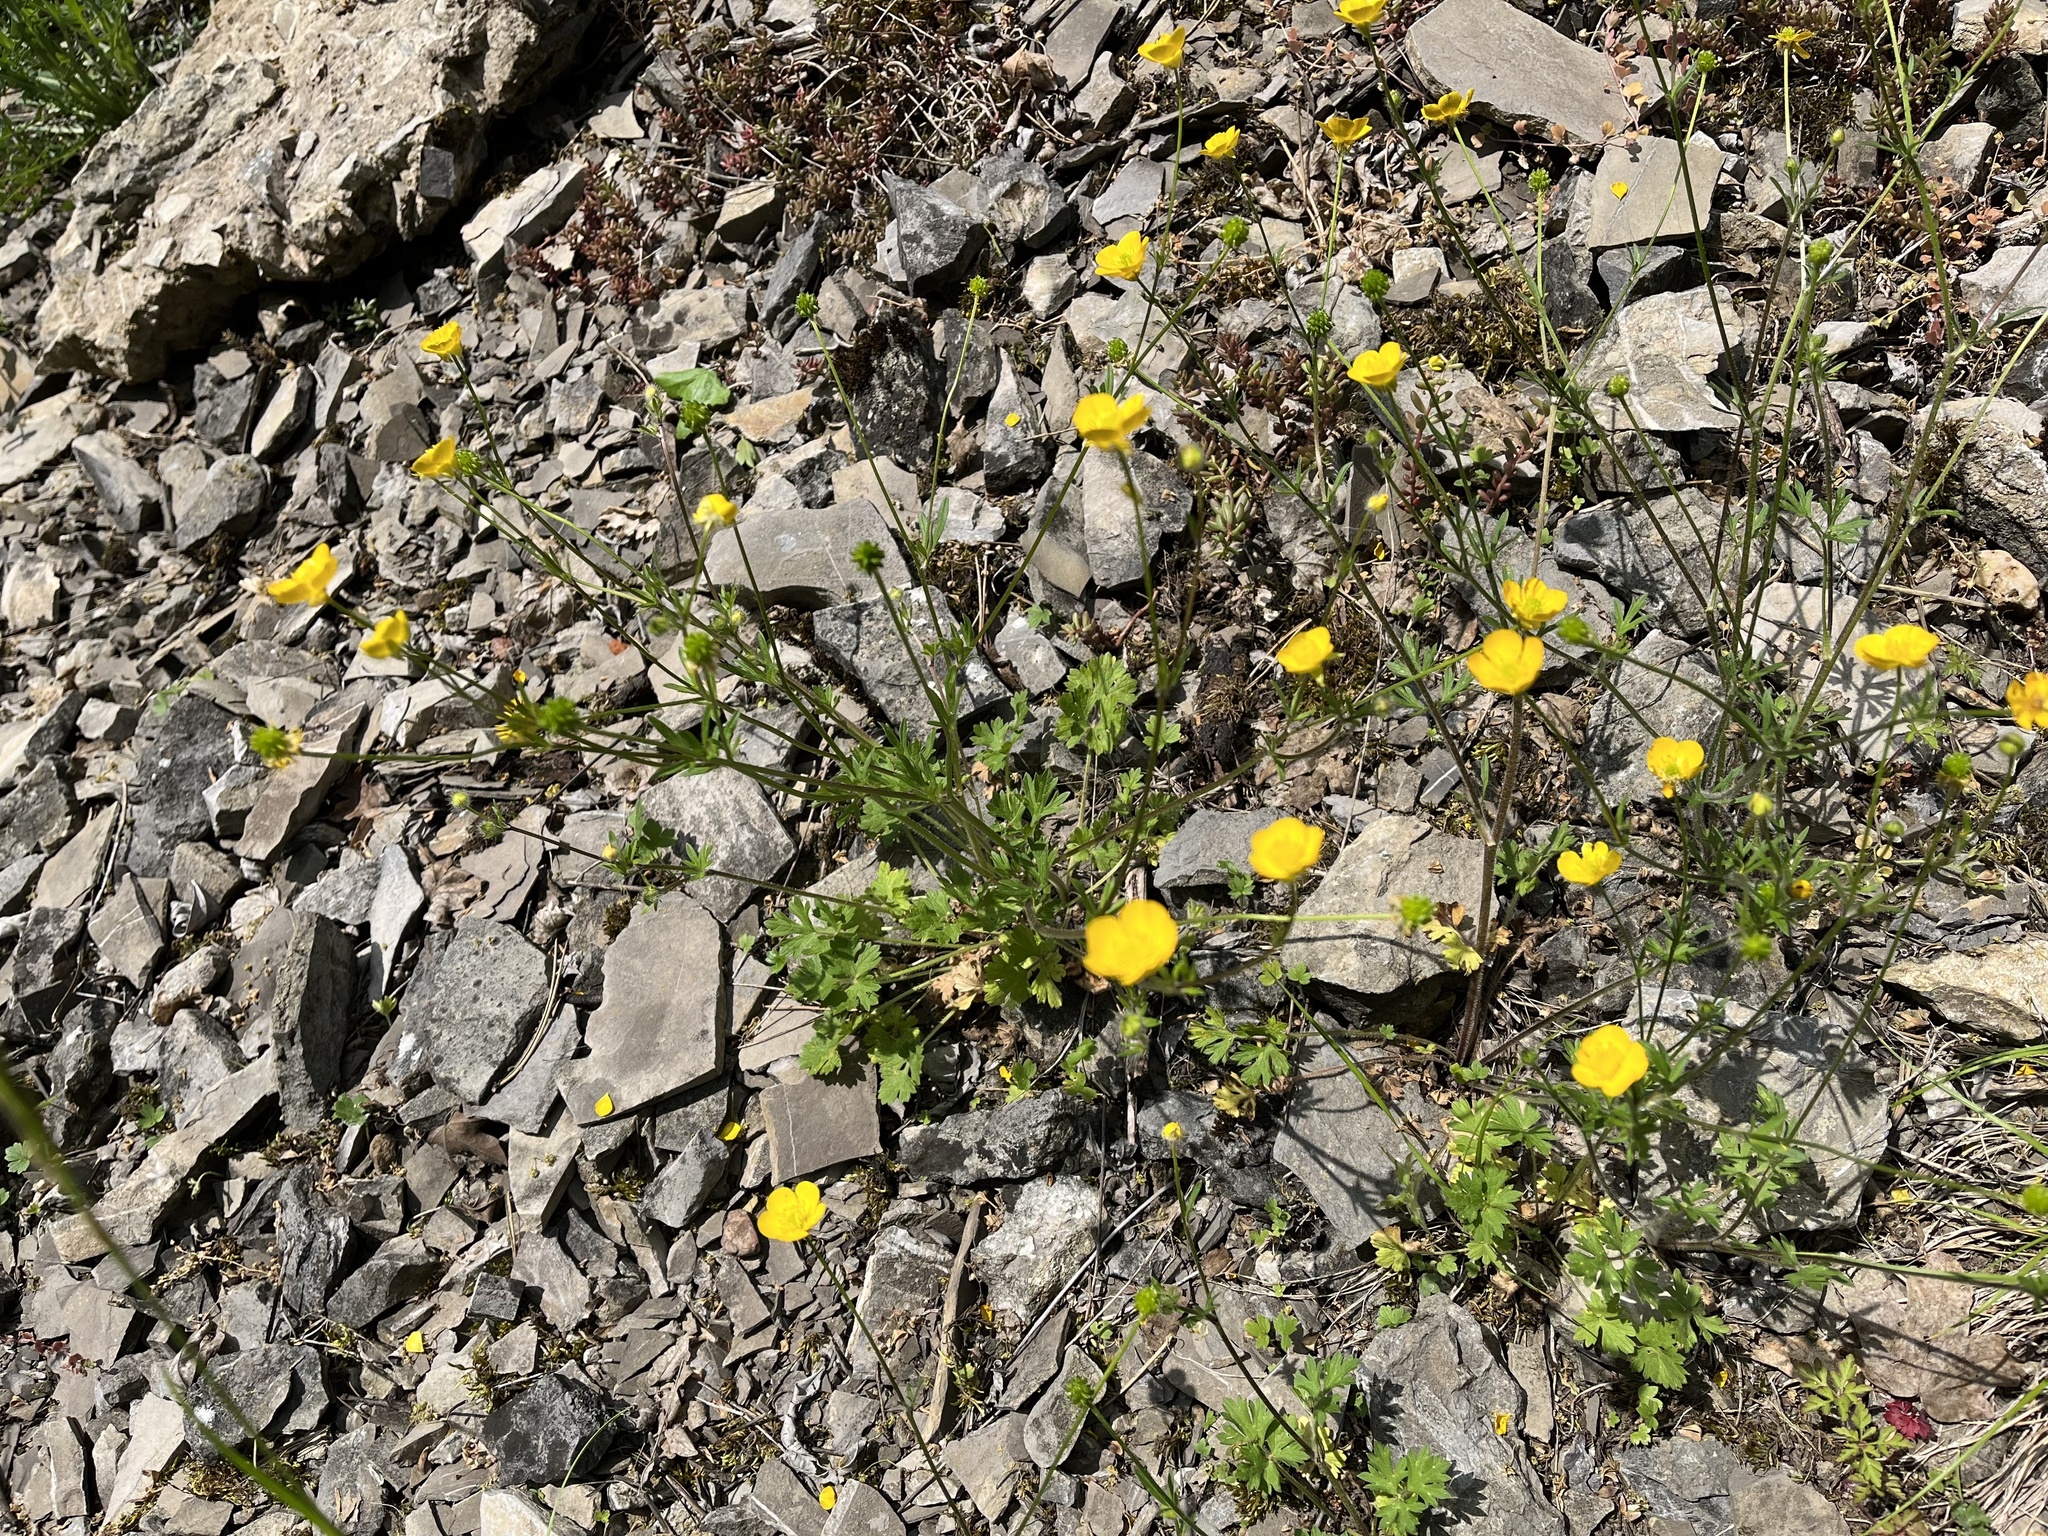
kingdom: Plantae
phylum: Tracheophyta
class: Magnoliopsida
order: Ranunculales
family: Ranunculaceae
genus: Ranunculus
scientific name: Ranunculus bulbosus
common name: Bulbous buttercup
